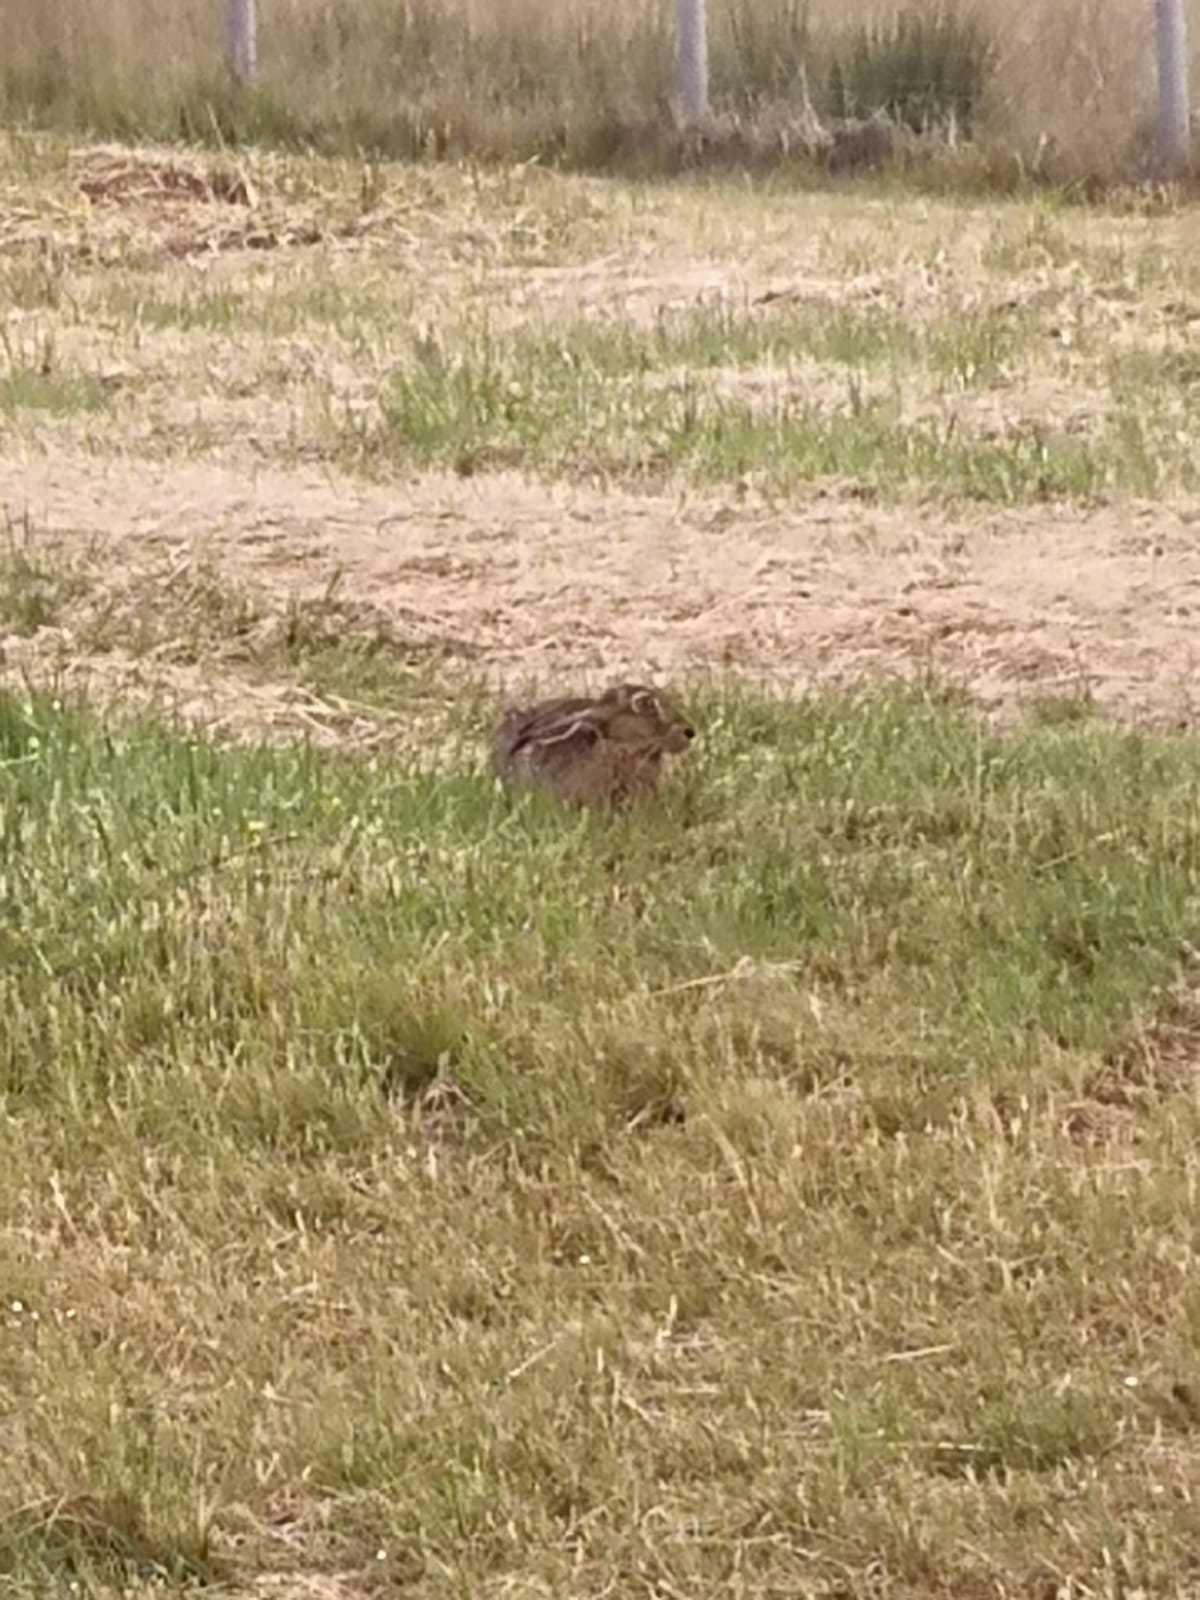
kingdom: Animalia
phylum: Chordata
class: Mammalia
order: Lagomorpha
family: Leporidae
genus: Lepus
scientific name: Lepus europaeus
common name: European hare
